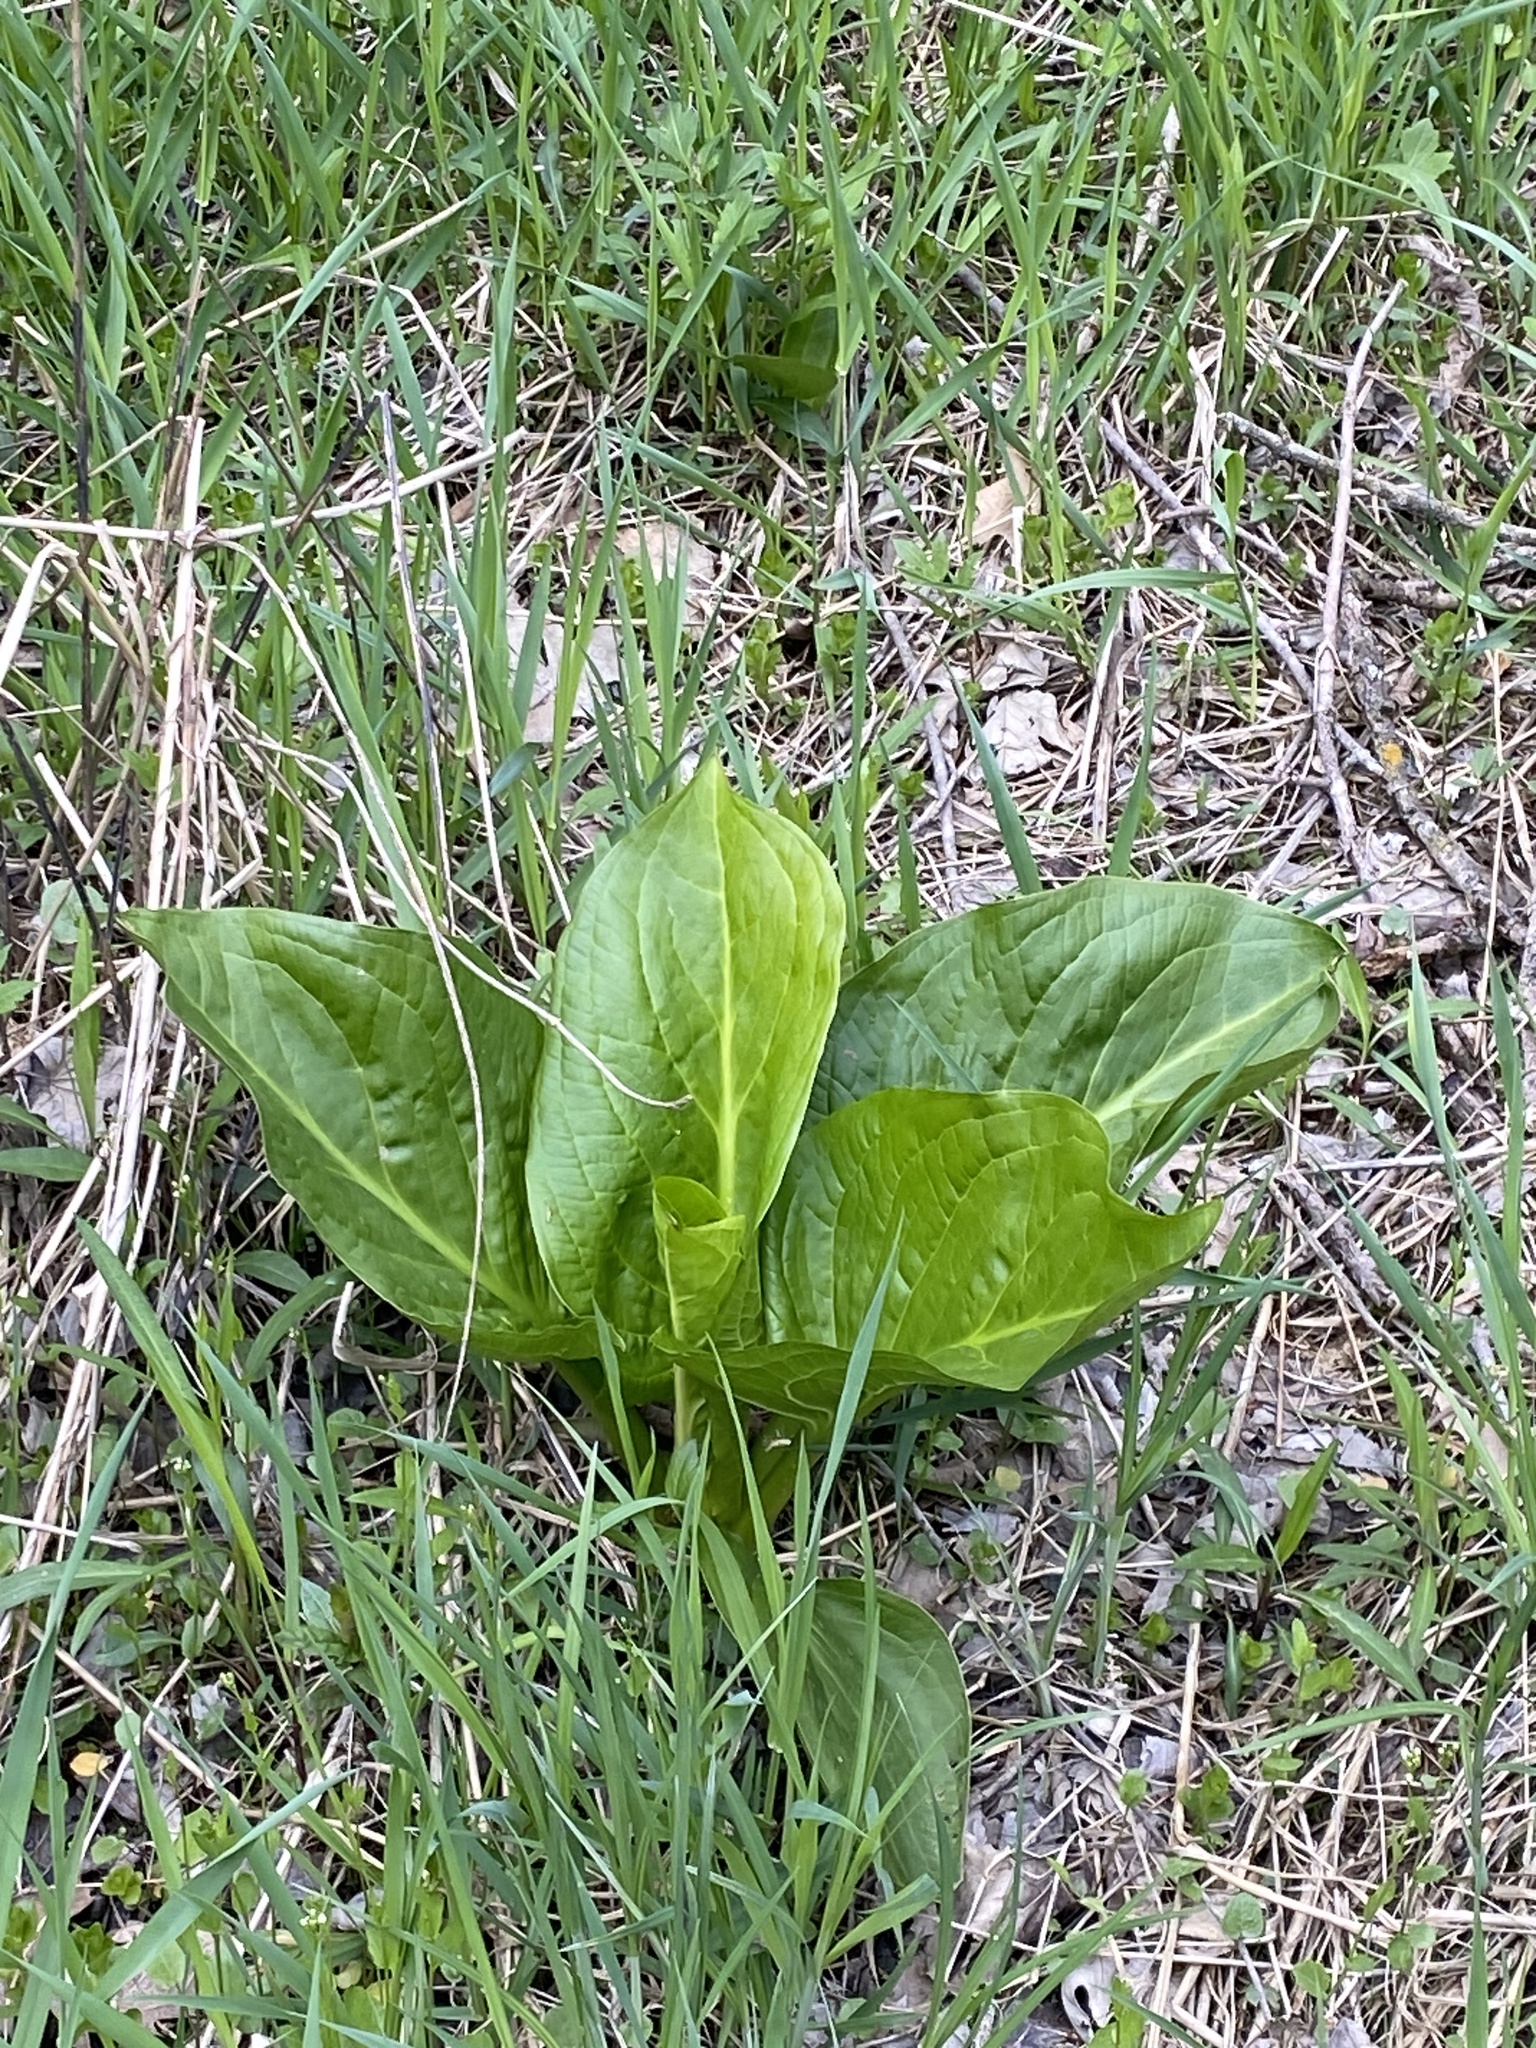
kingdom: Plantae
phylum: Tracheophyta
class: Liliopsida
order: Alismatales
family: Araceae
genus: Symplocarpus
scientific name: Symplocarpus foetidus
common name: Eastern skunk cabbage
